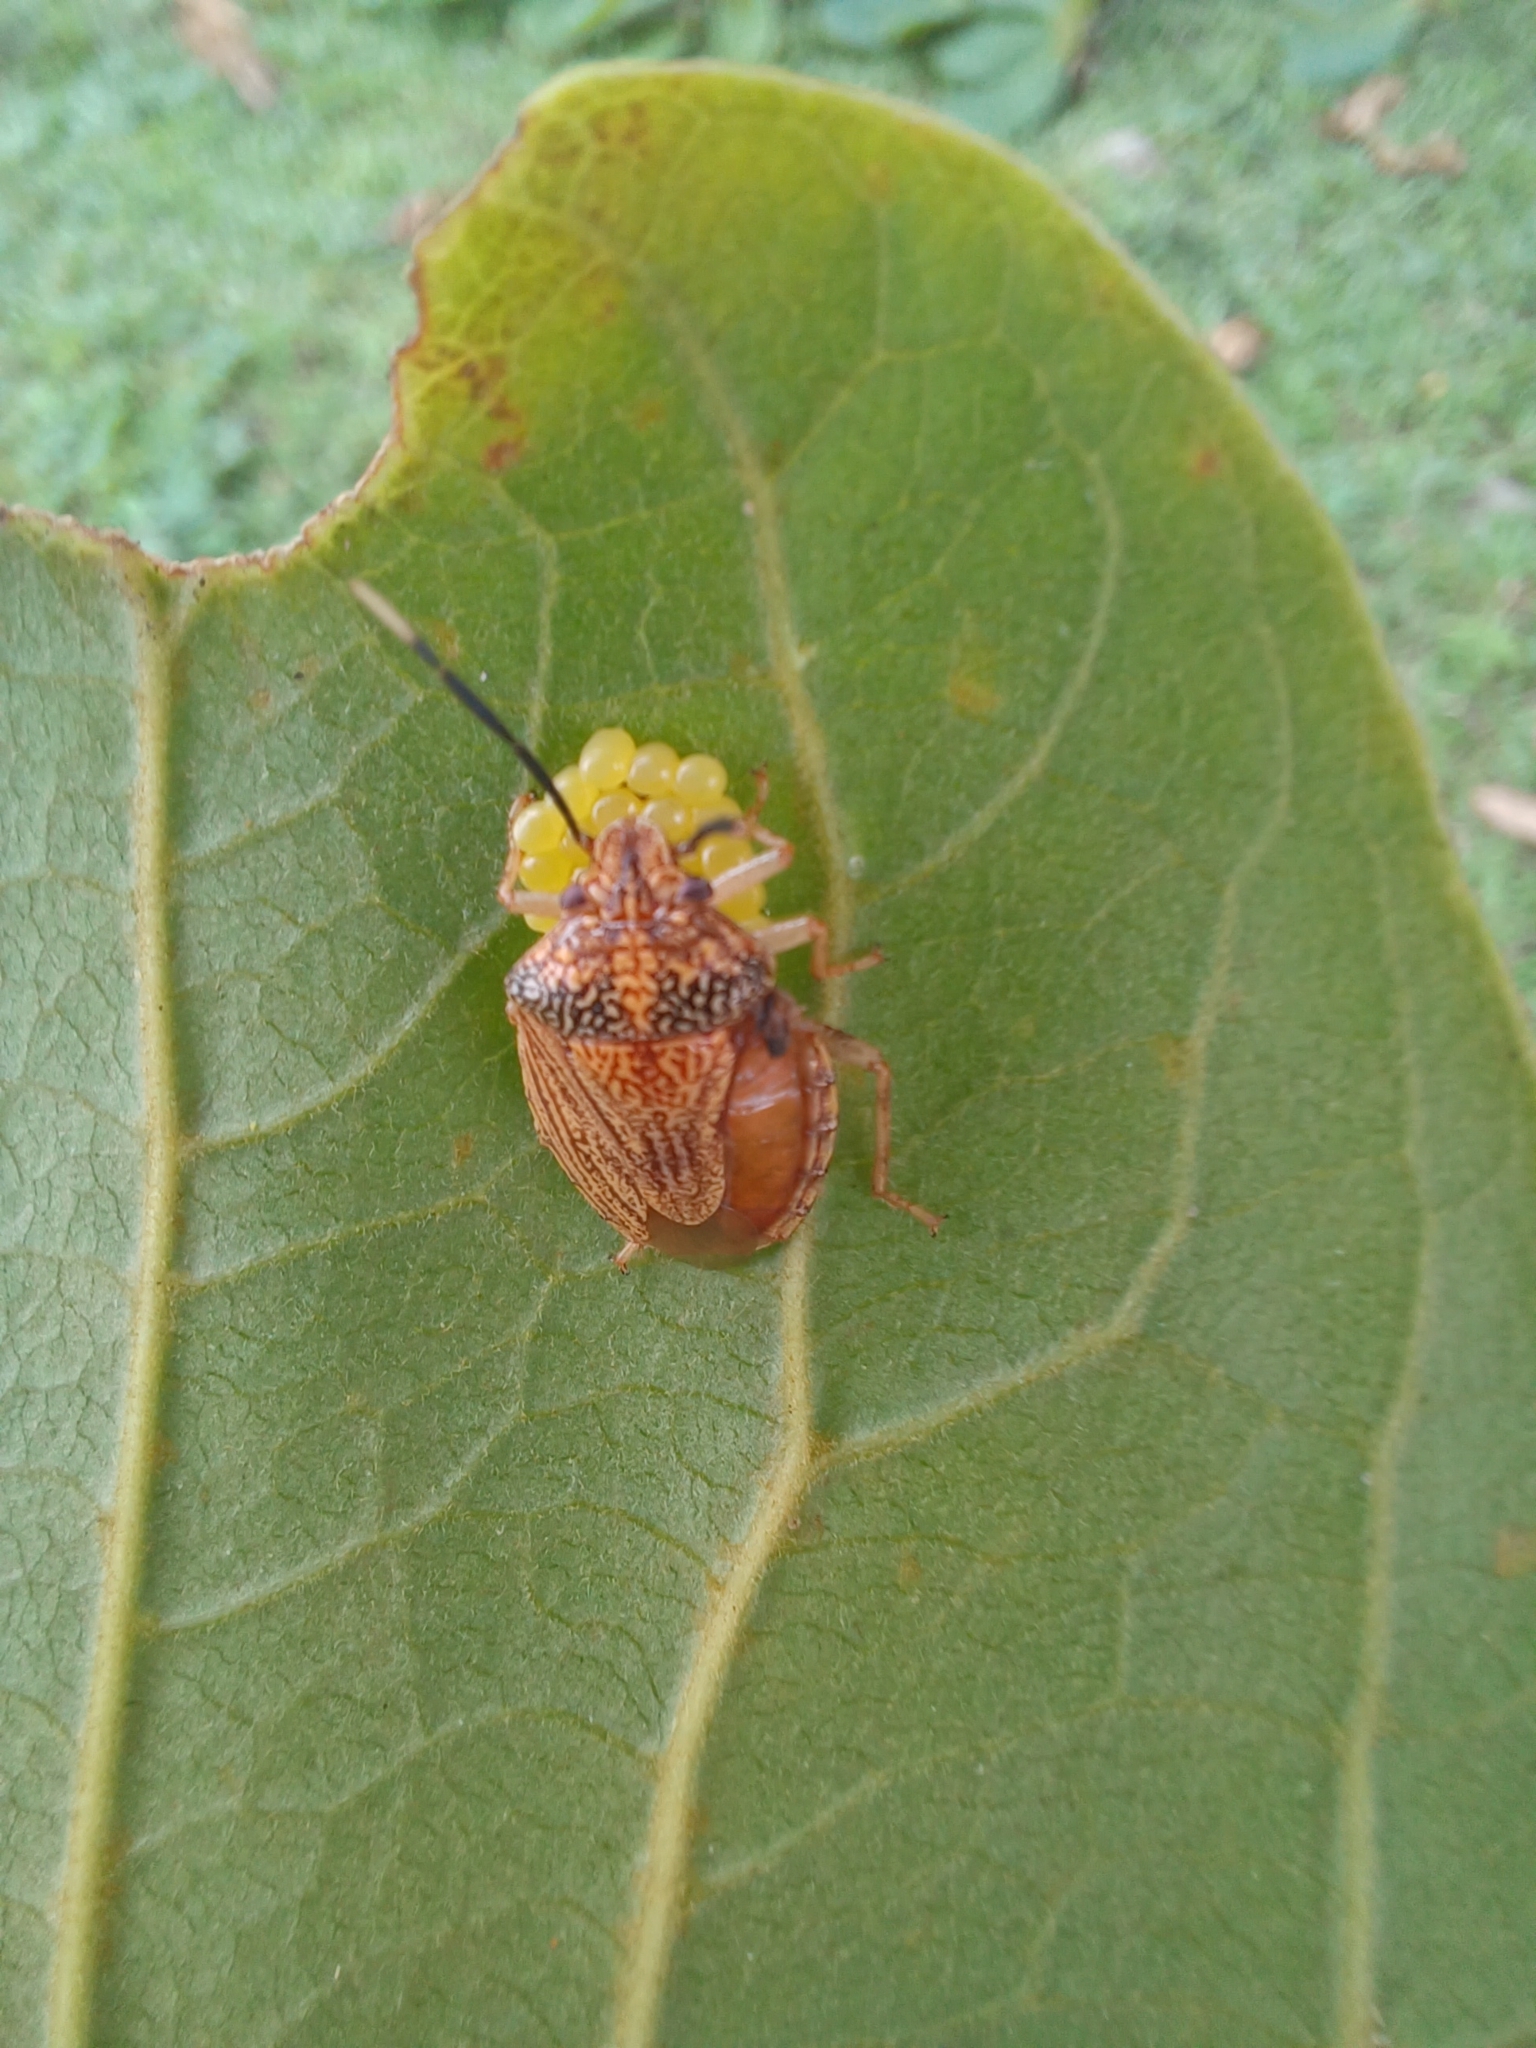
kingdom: Animalia
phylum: Arthropoda
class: Insecta
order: Hemiptera
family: Pentatomidae
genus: Antiteuchus
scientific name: Antiteuchus
